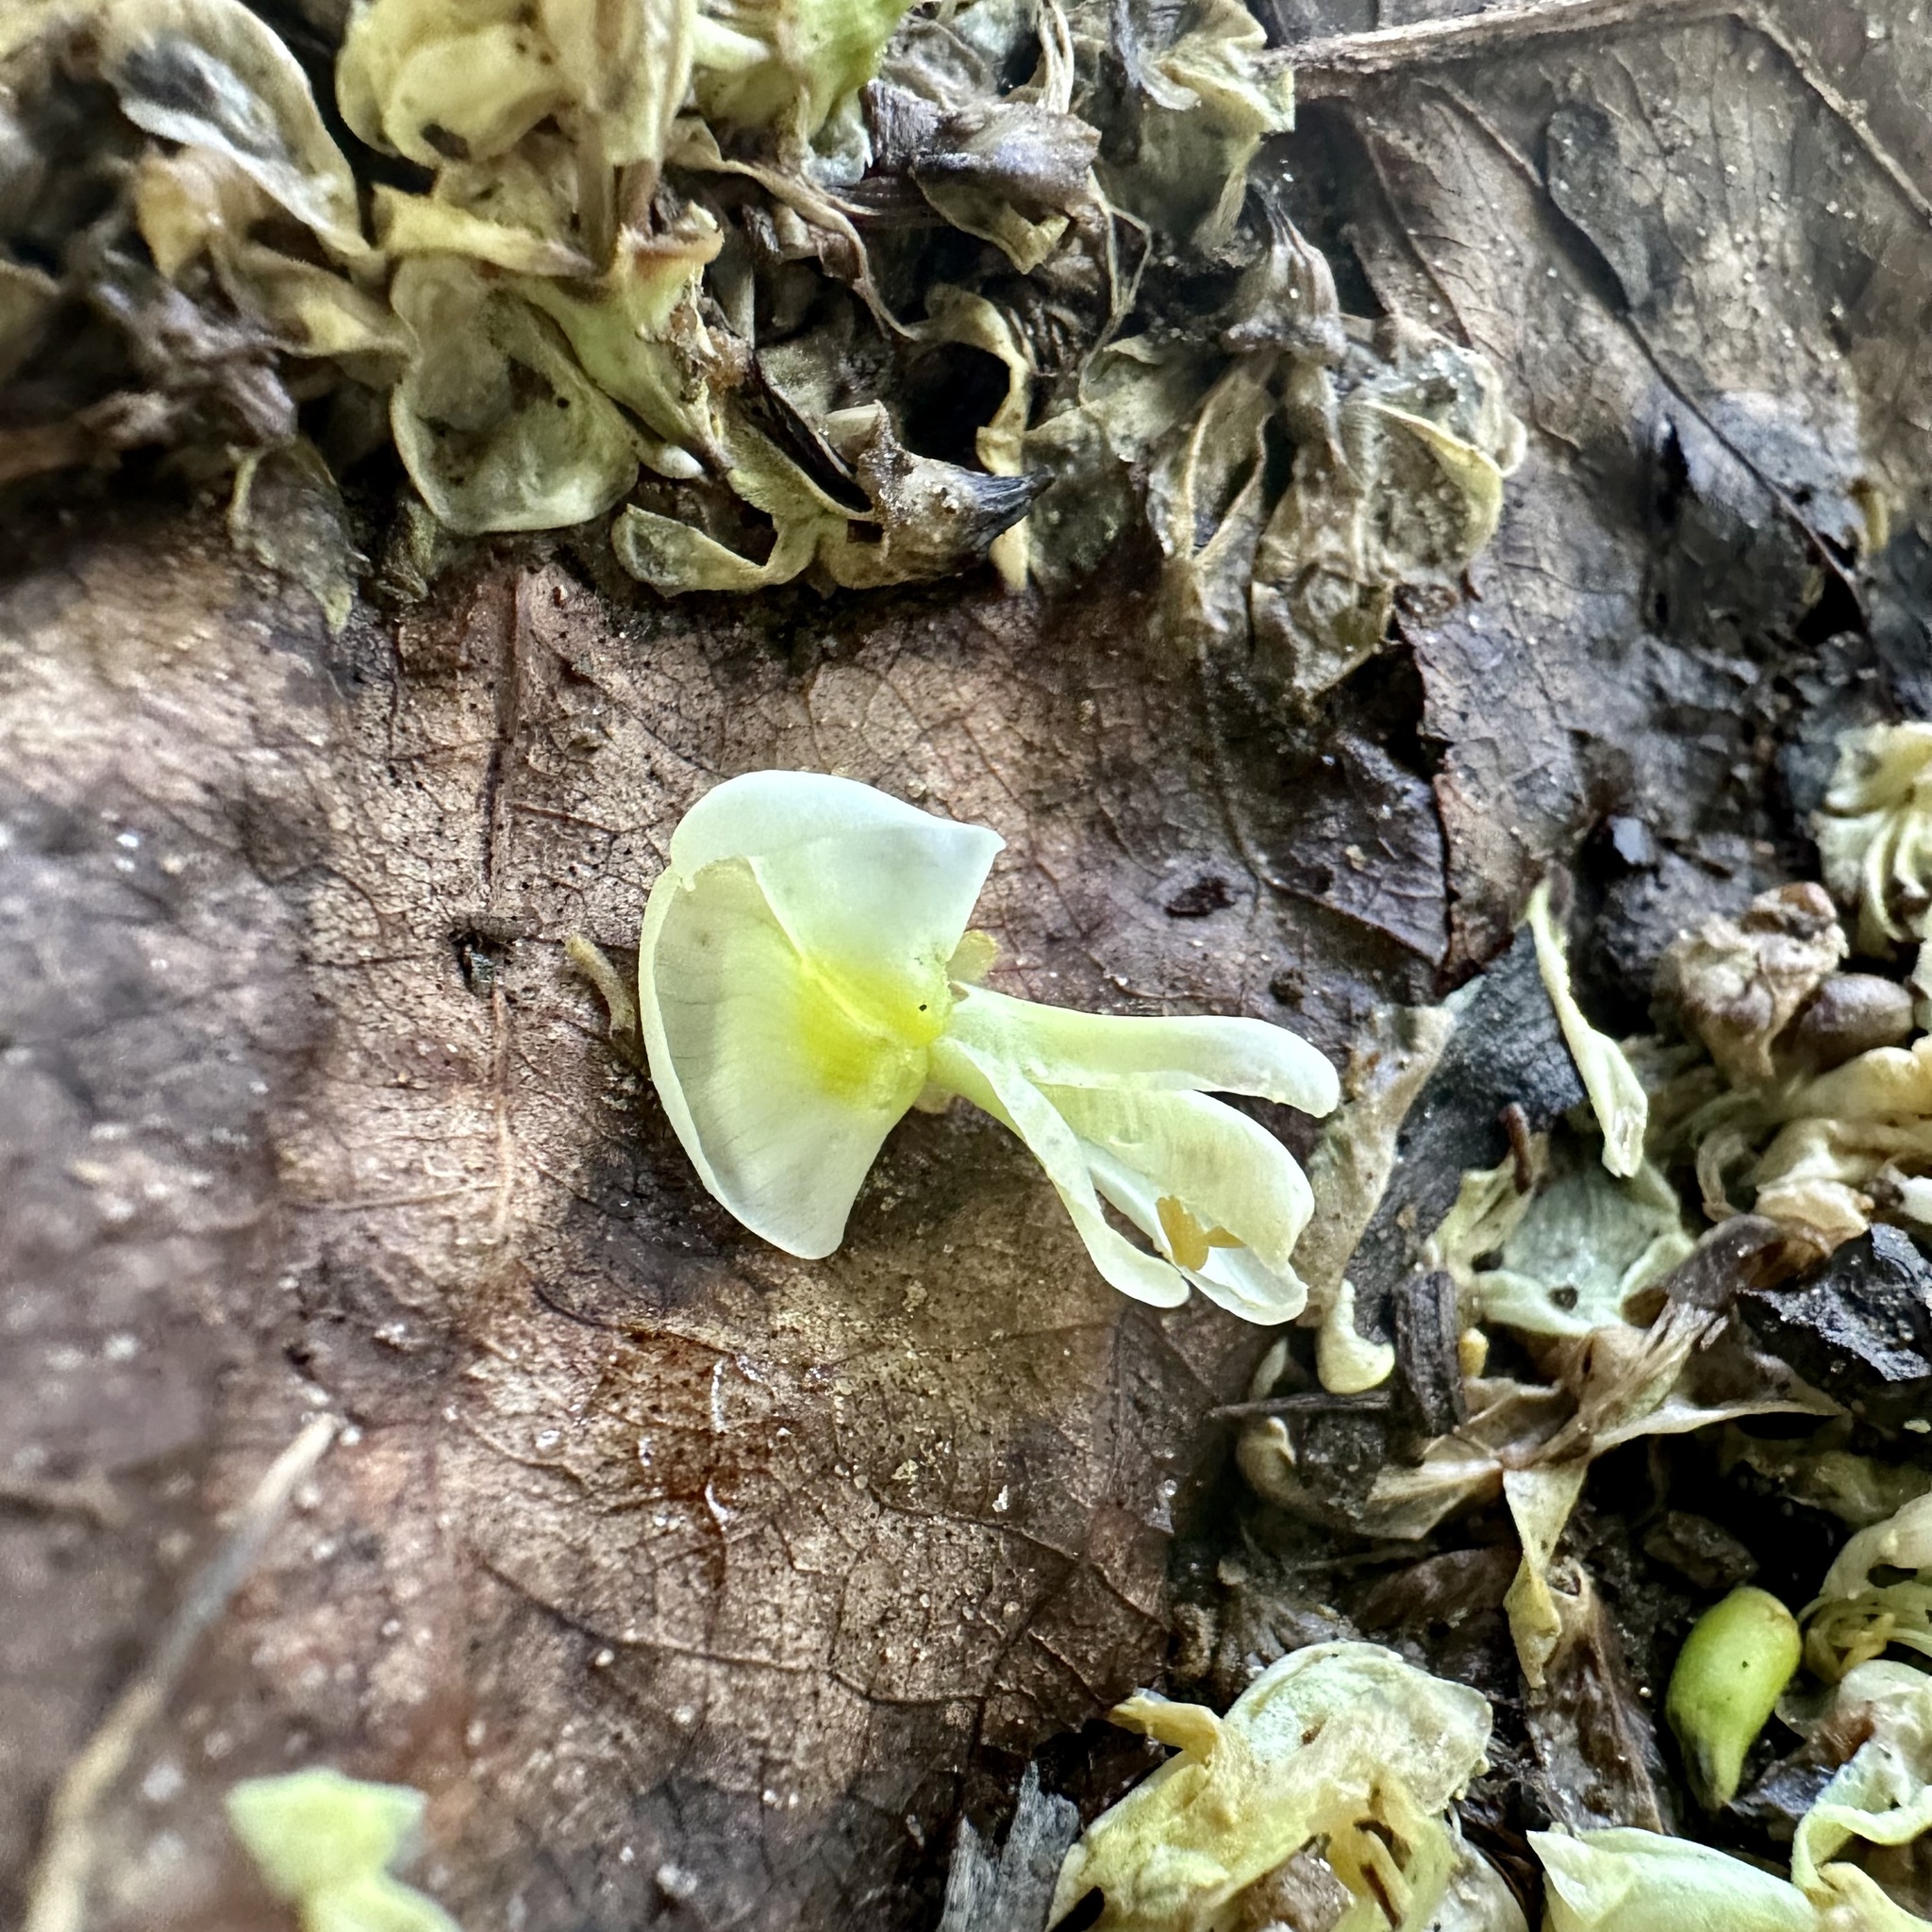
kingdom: Plantae
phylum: Tracheophyta
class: Magnoliopsida
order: Fabales
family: Fabaceae
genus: Styphnolobium
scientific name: Styphnolobium japonicum
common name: Chinese scholartree
